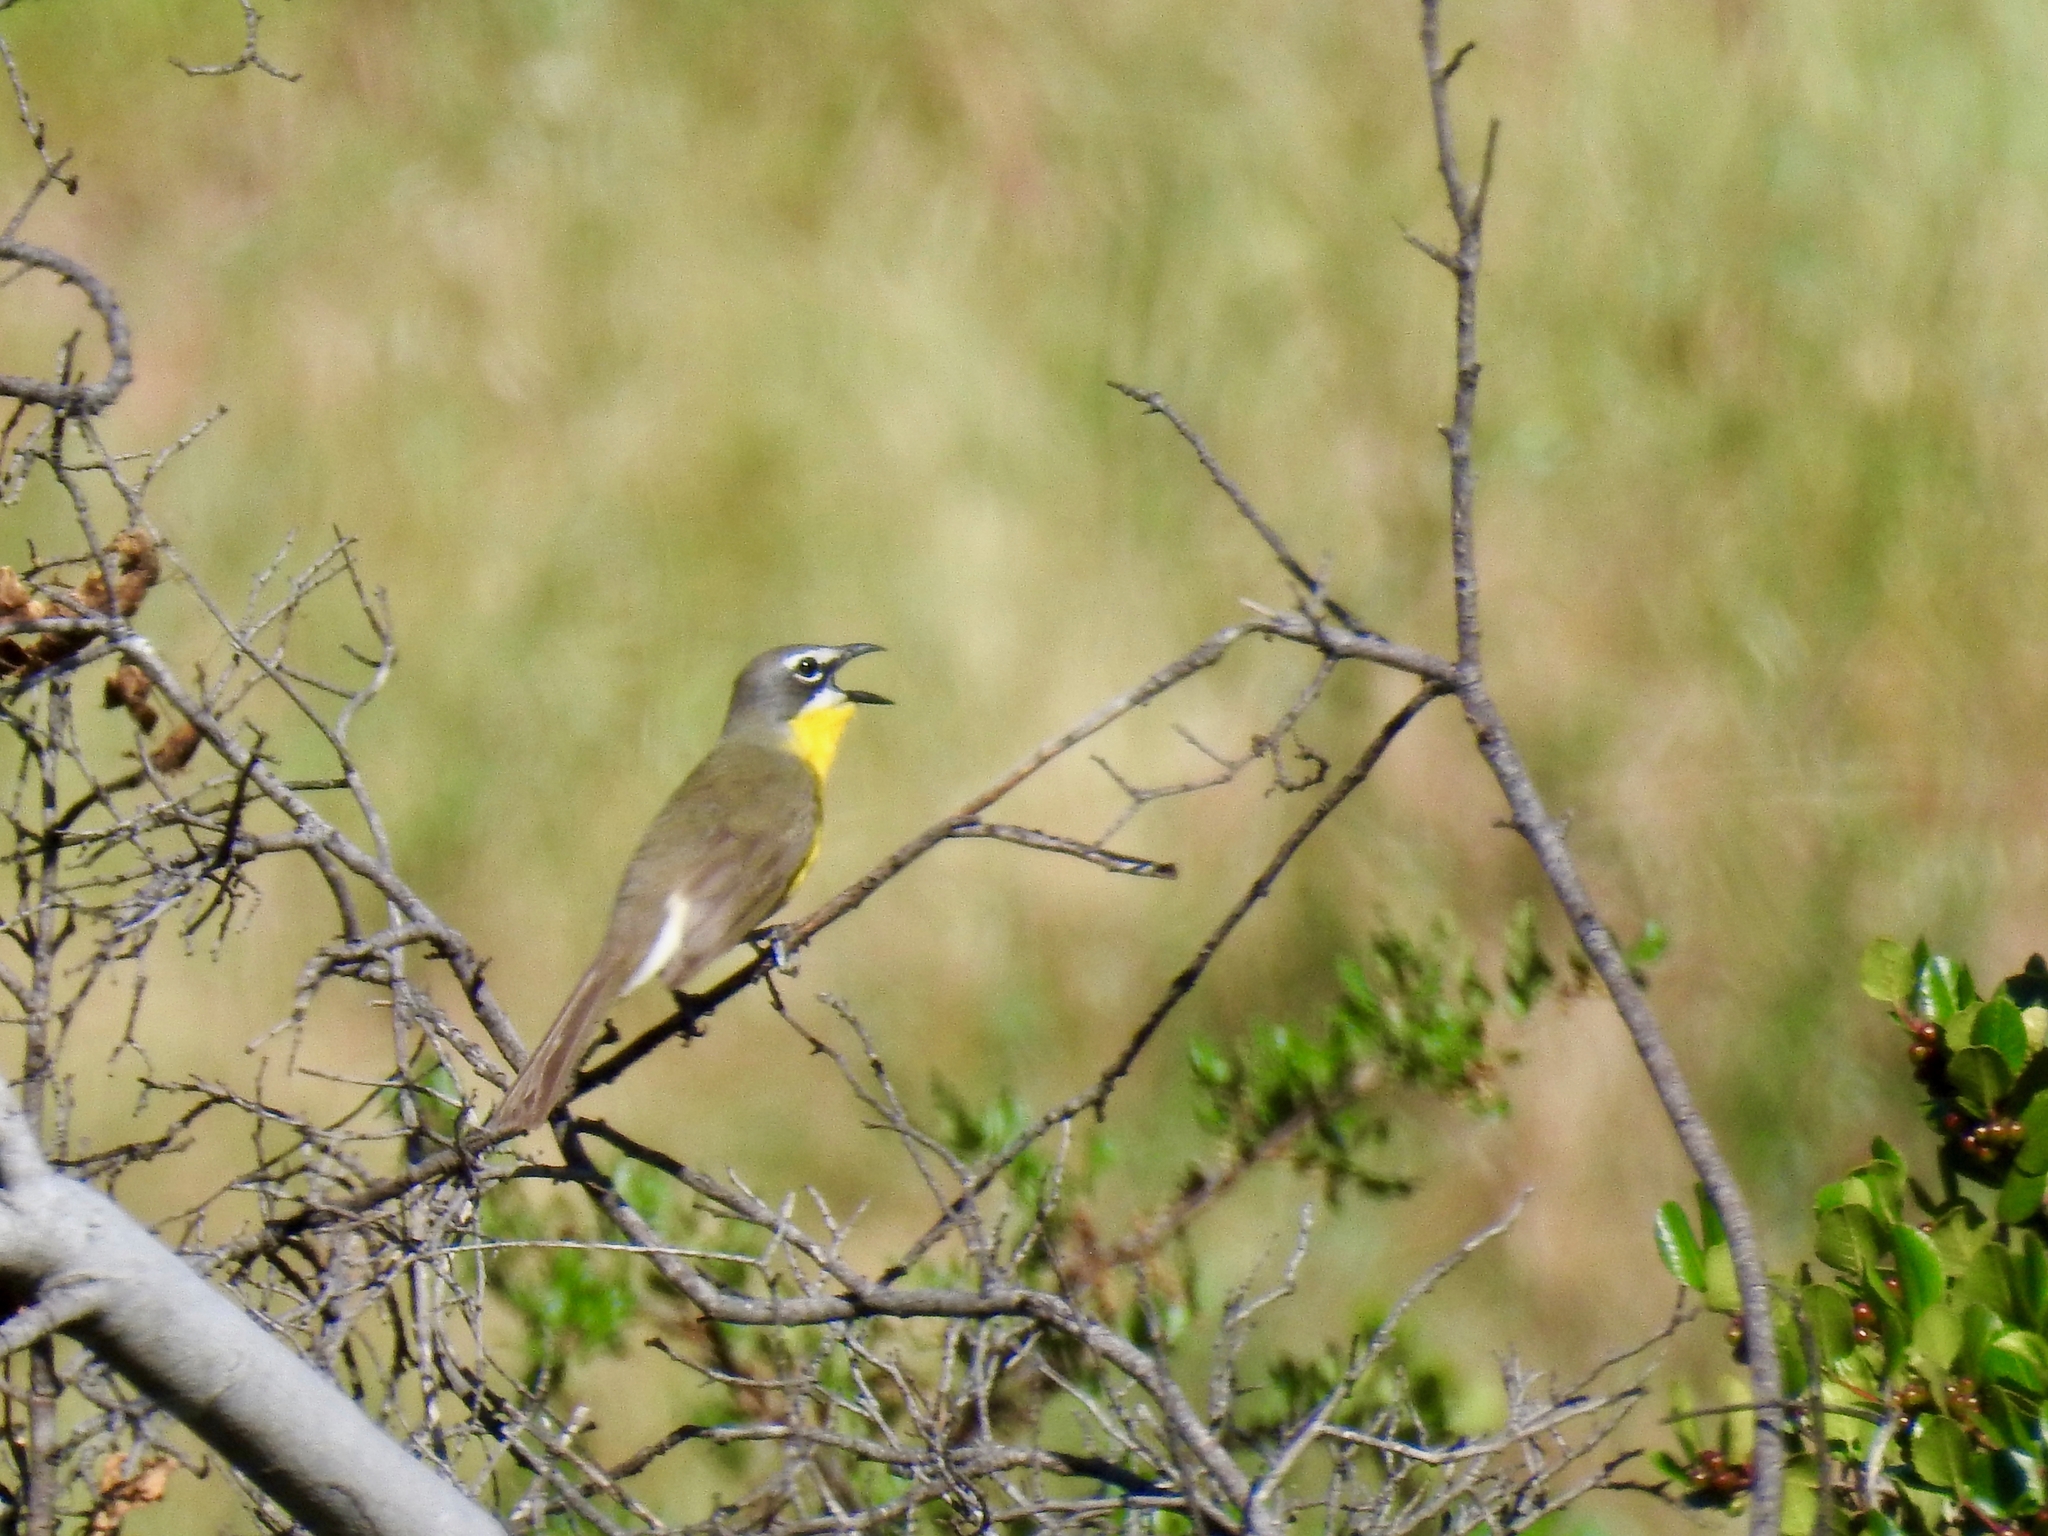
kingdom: Animalia
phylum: Chordata
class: Aves
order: Passeriformes
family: Parulidae
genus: Icteria
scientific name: Icteria virens
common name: Yellow-breasted chat
